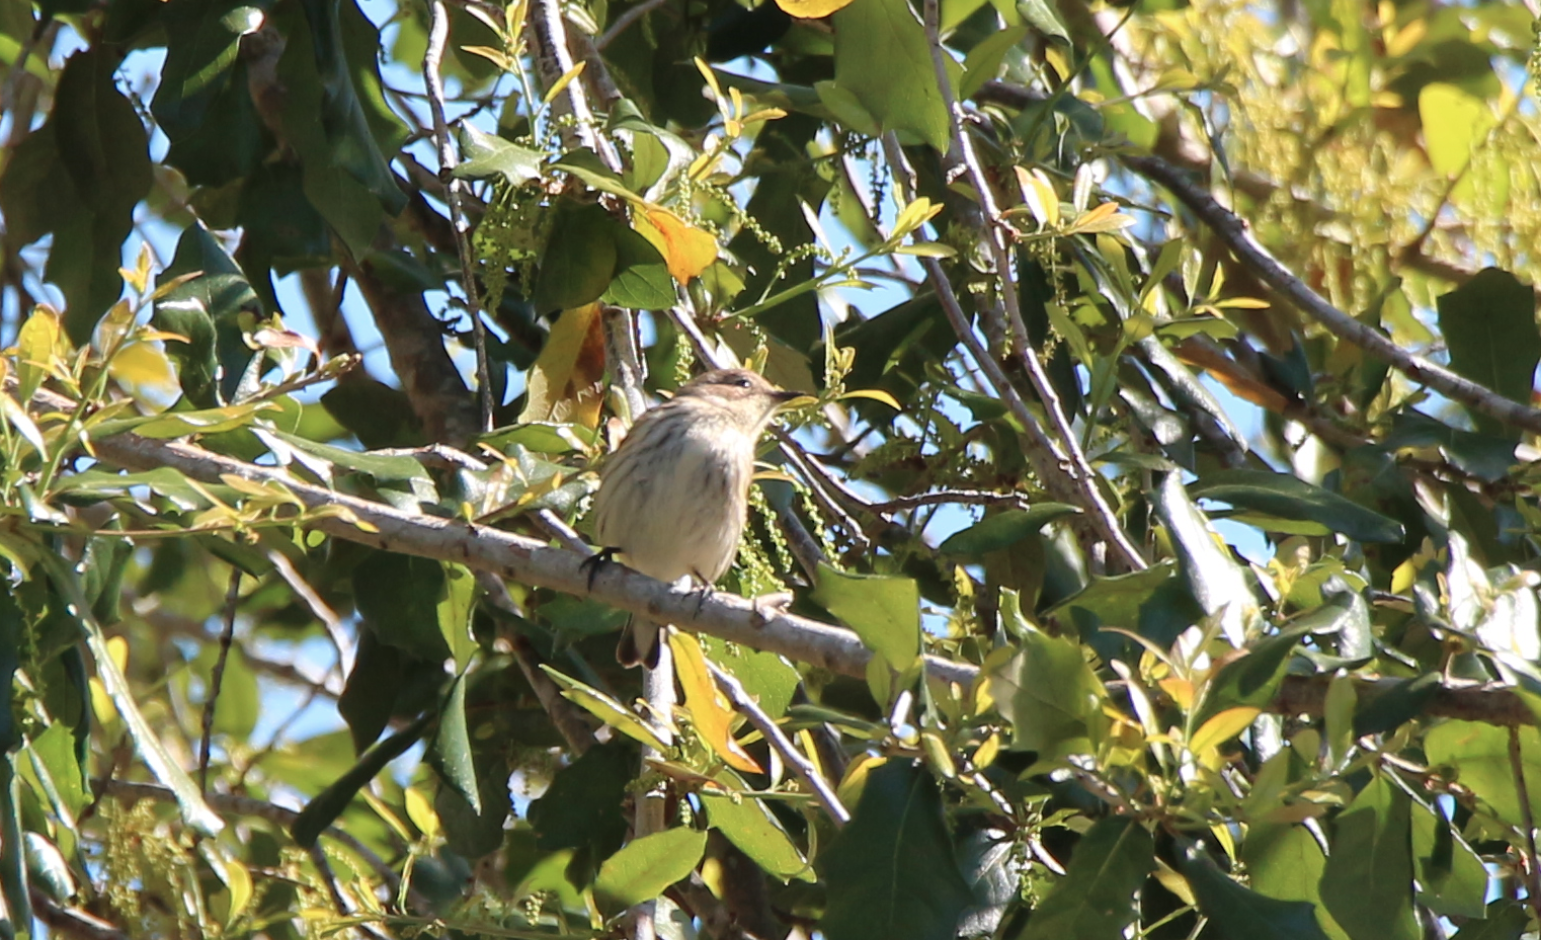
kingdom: Animalia
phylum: Chordata
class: Aves
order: Passeriformes
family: Parulidae
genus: Setophaga
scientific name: Setophaga coronata
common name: Myrtle warbler
